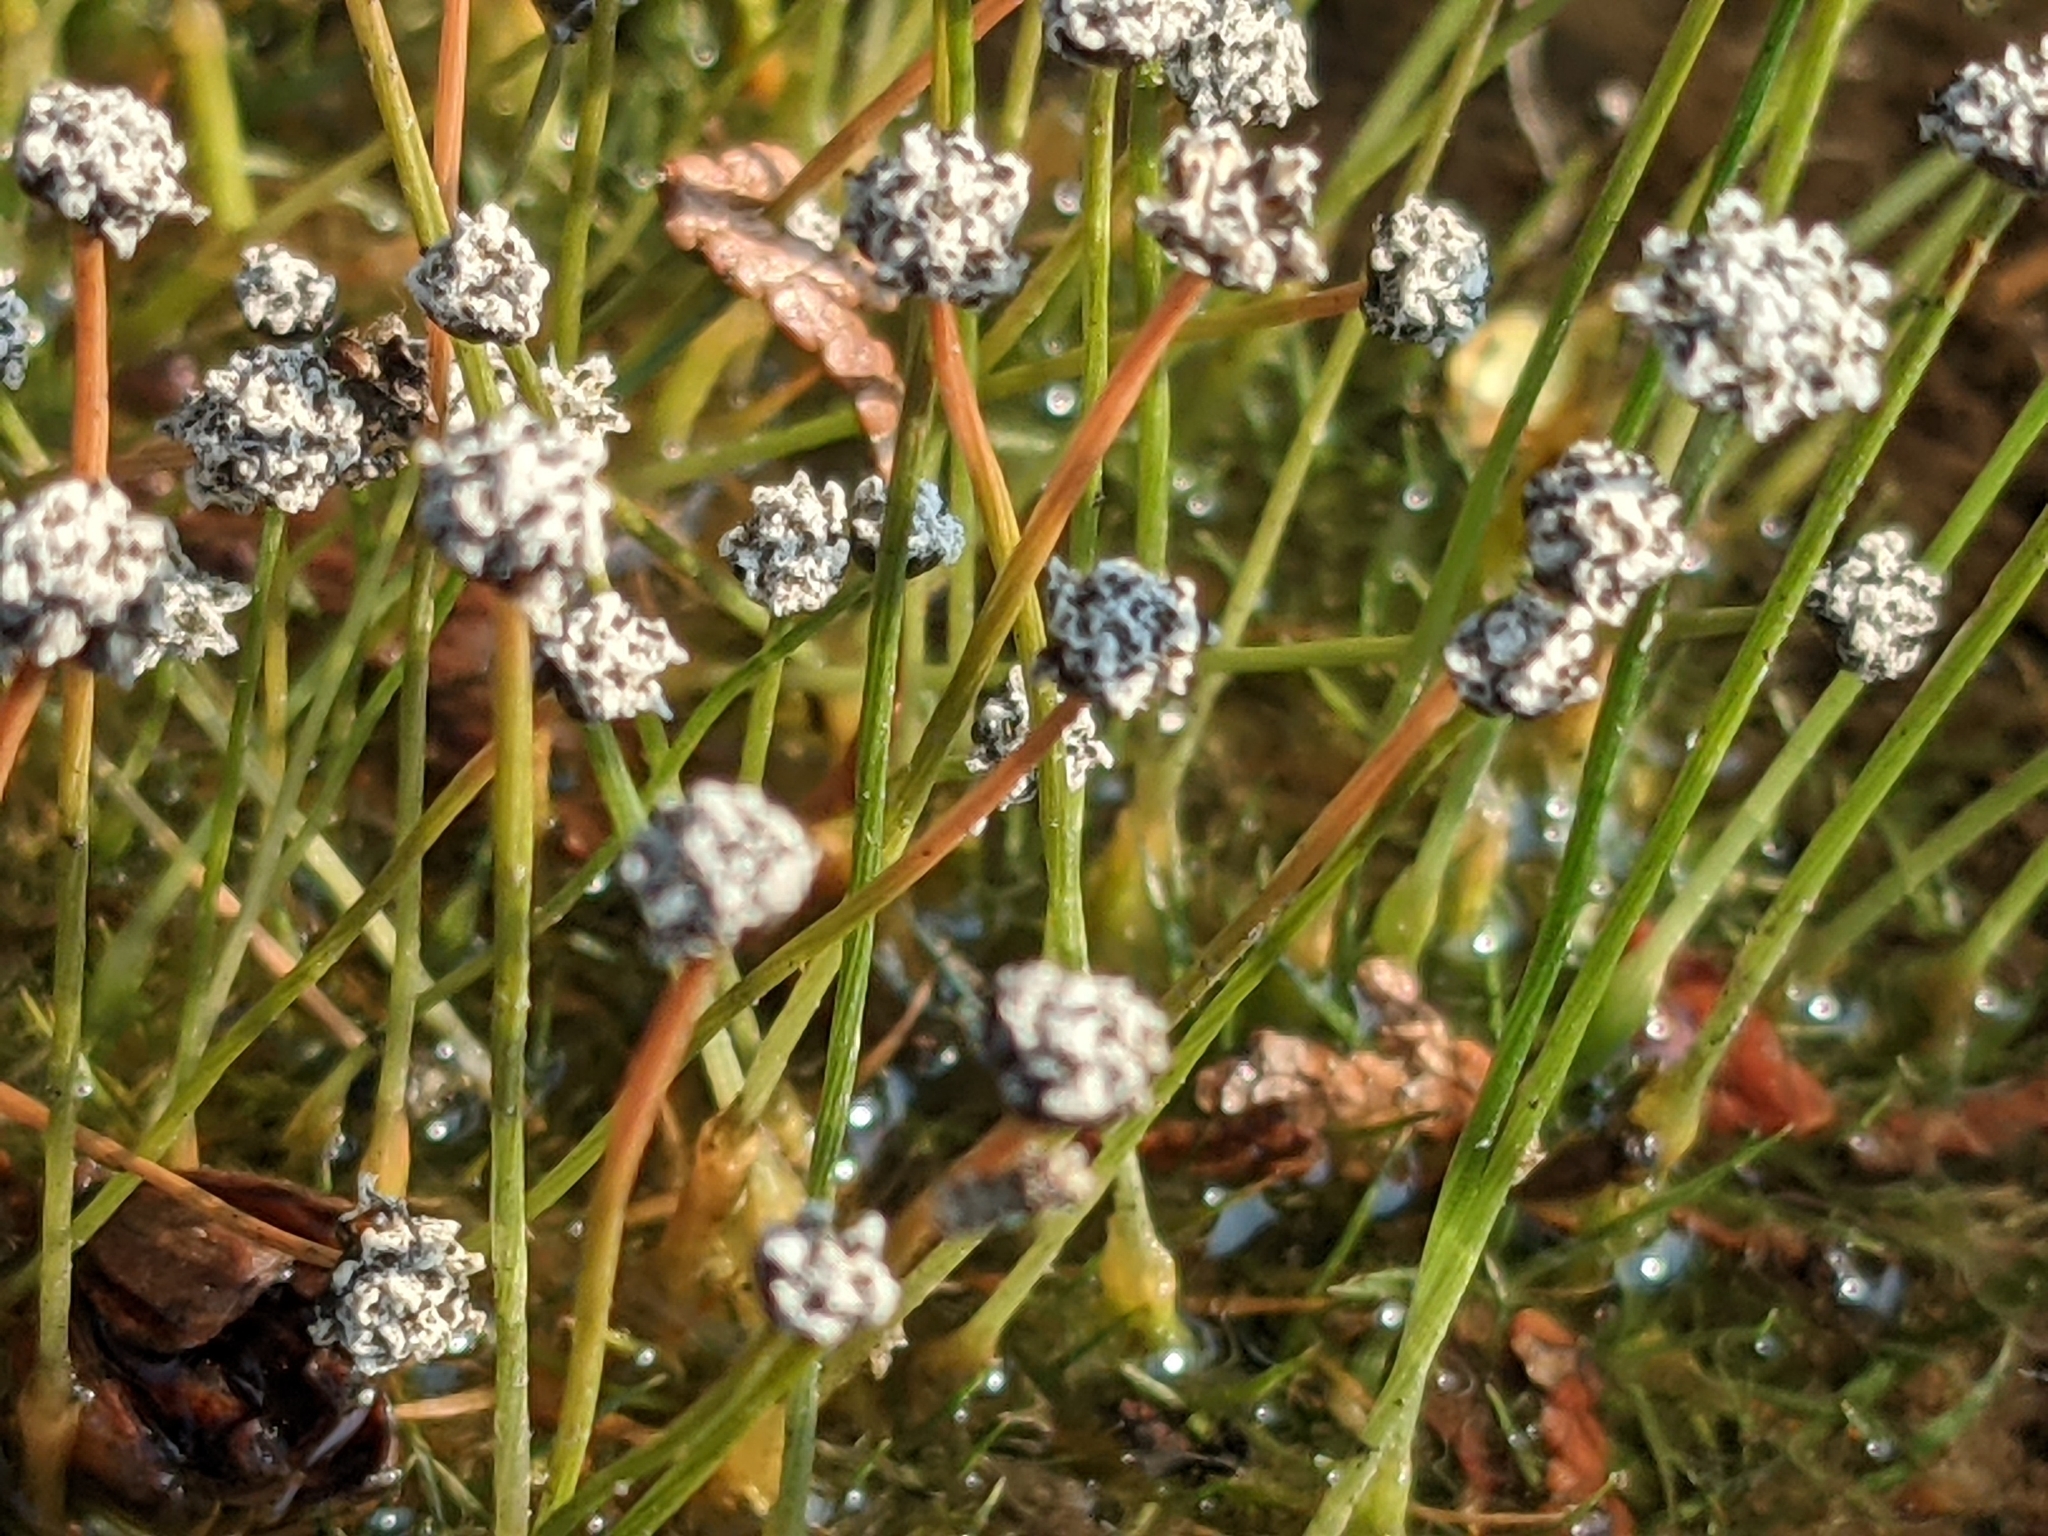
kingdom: Plantae
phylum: Tracheophyta
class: Liliopsida
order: Poales
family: Eriocaulaceae
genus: Eriocaulon
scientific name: Eriocaulon aquaticum
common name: Pipewort
